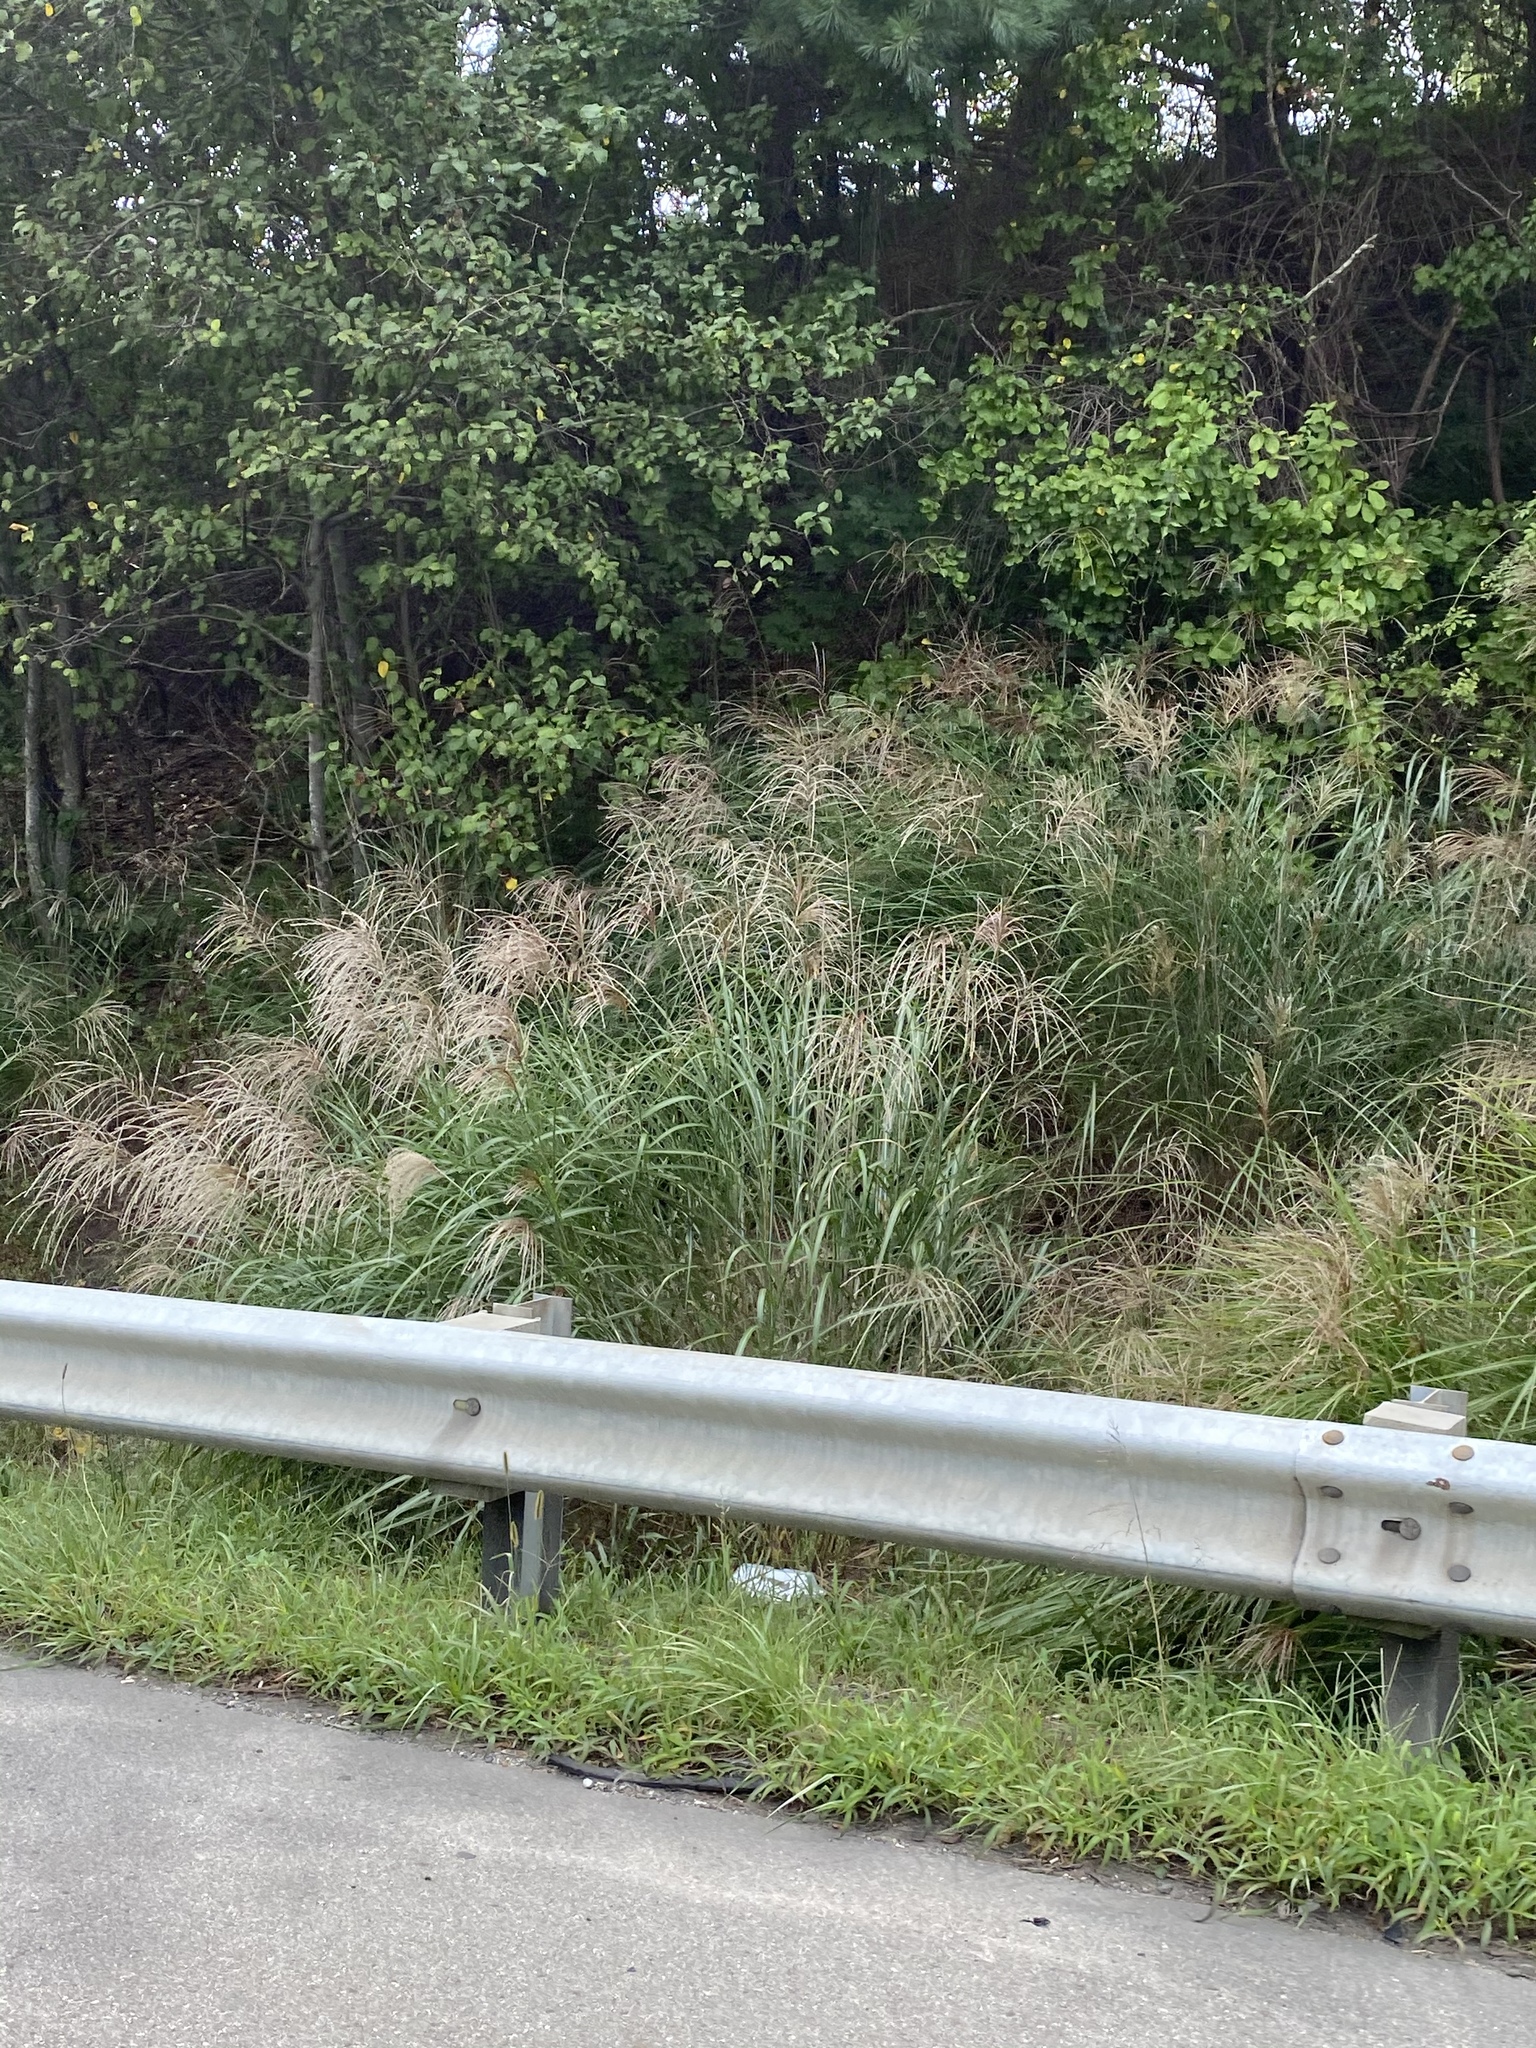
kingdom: Plantae
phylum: Tracheophyta
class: Liliopsida
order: Poales
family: Poaceae
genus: Miscanthus
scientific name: Miscanthus sinensis
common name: Chinese silvergrass
